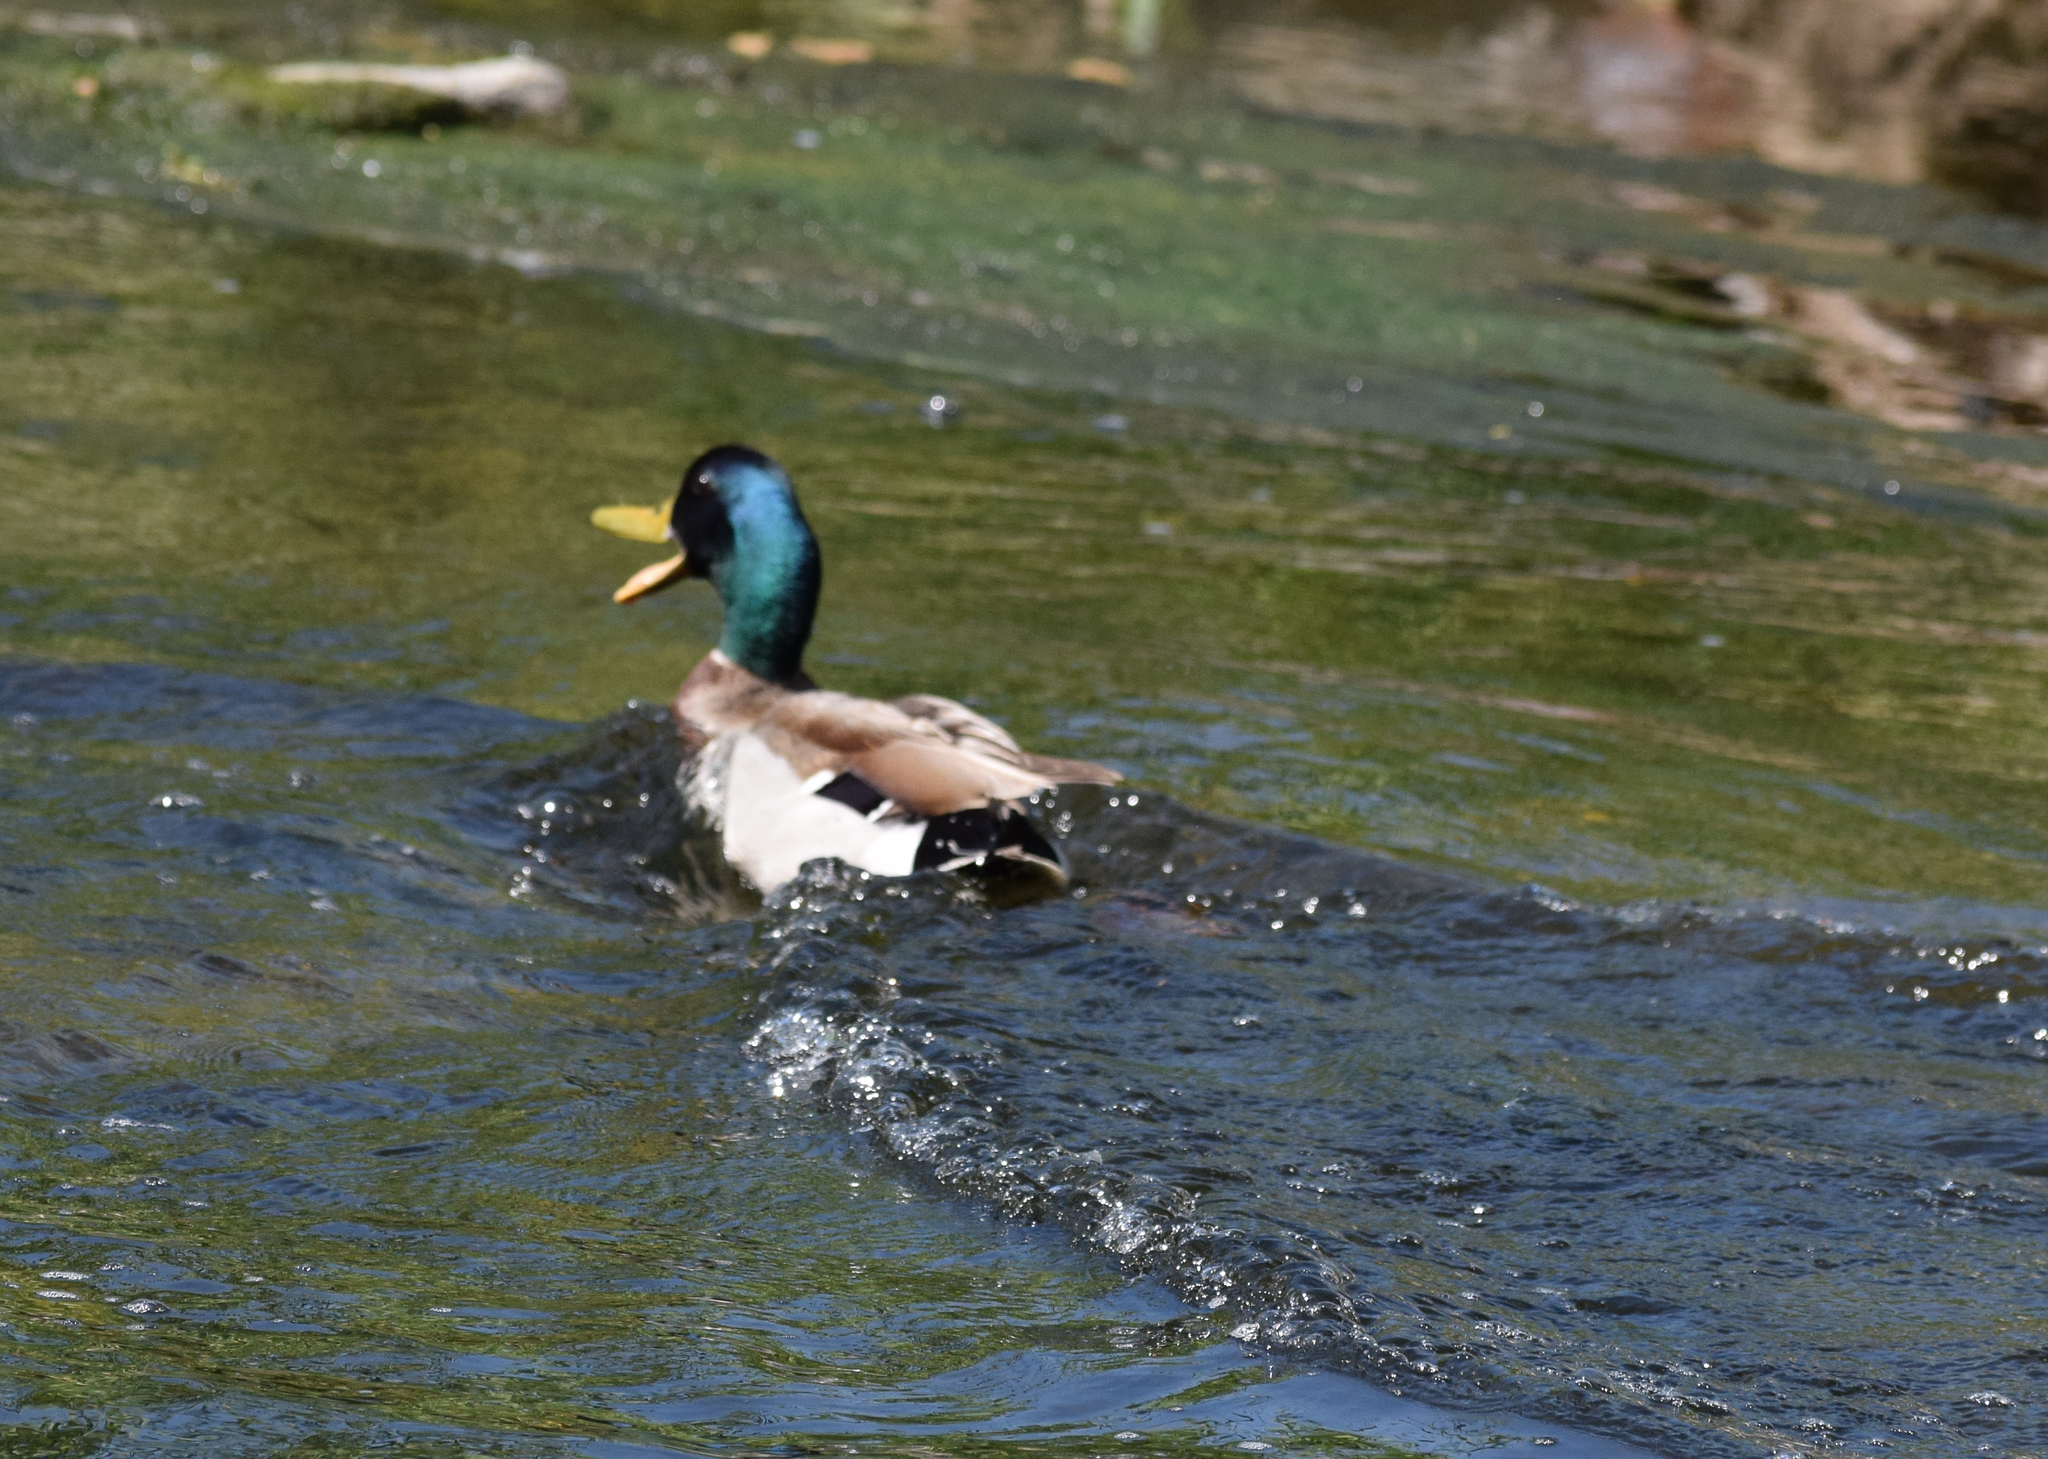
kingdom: Animalia
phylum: Chordata
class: Aves
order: Anseriformes
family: Anatidae
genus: Anas
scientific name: Anas platyrhynchos
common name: Mallard
